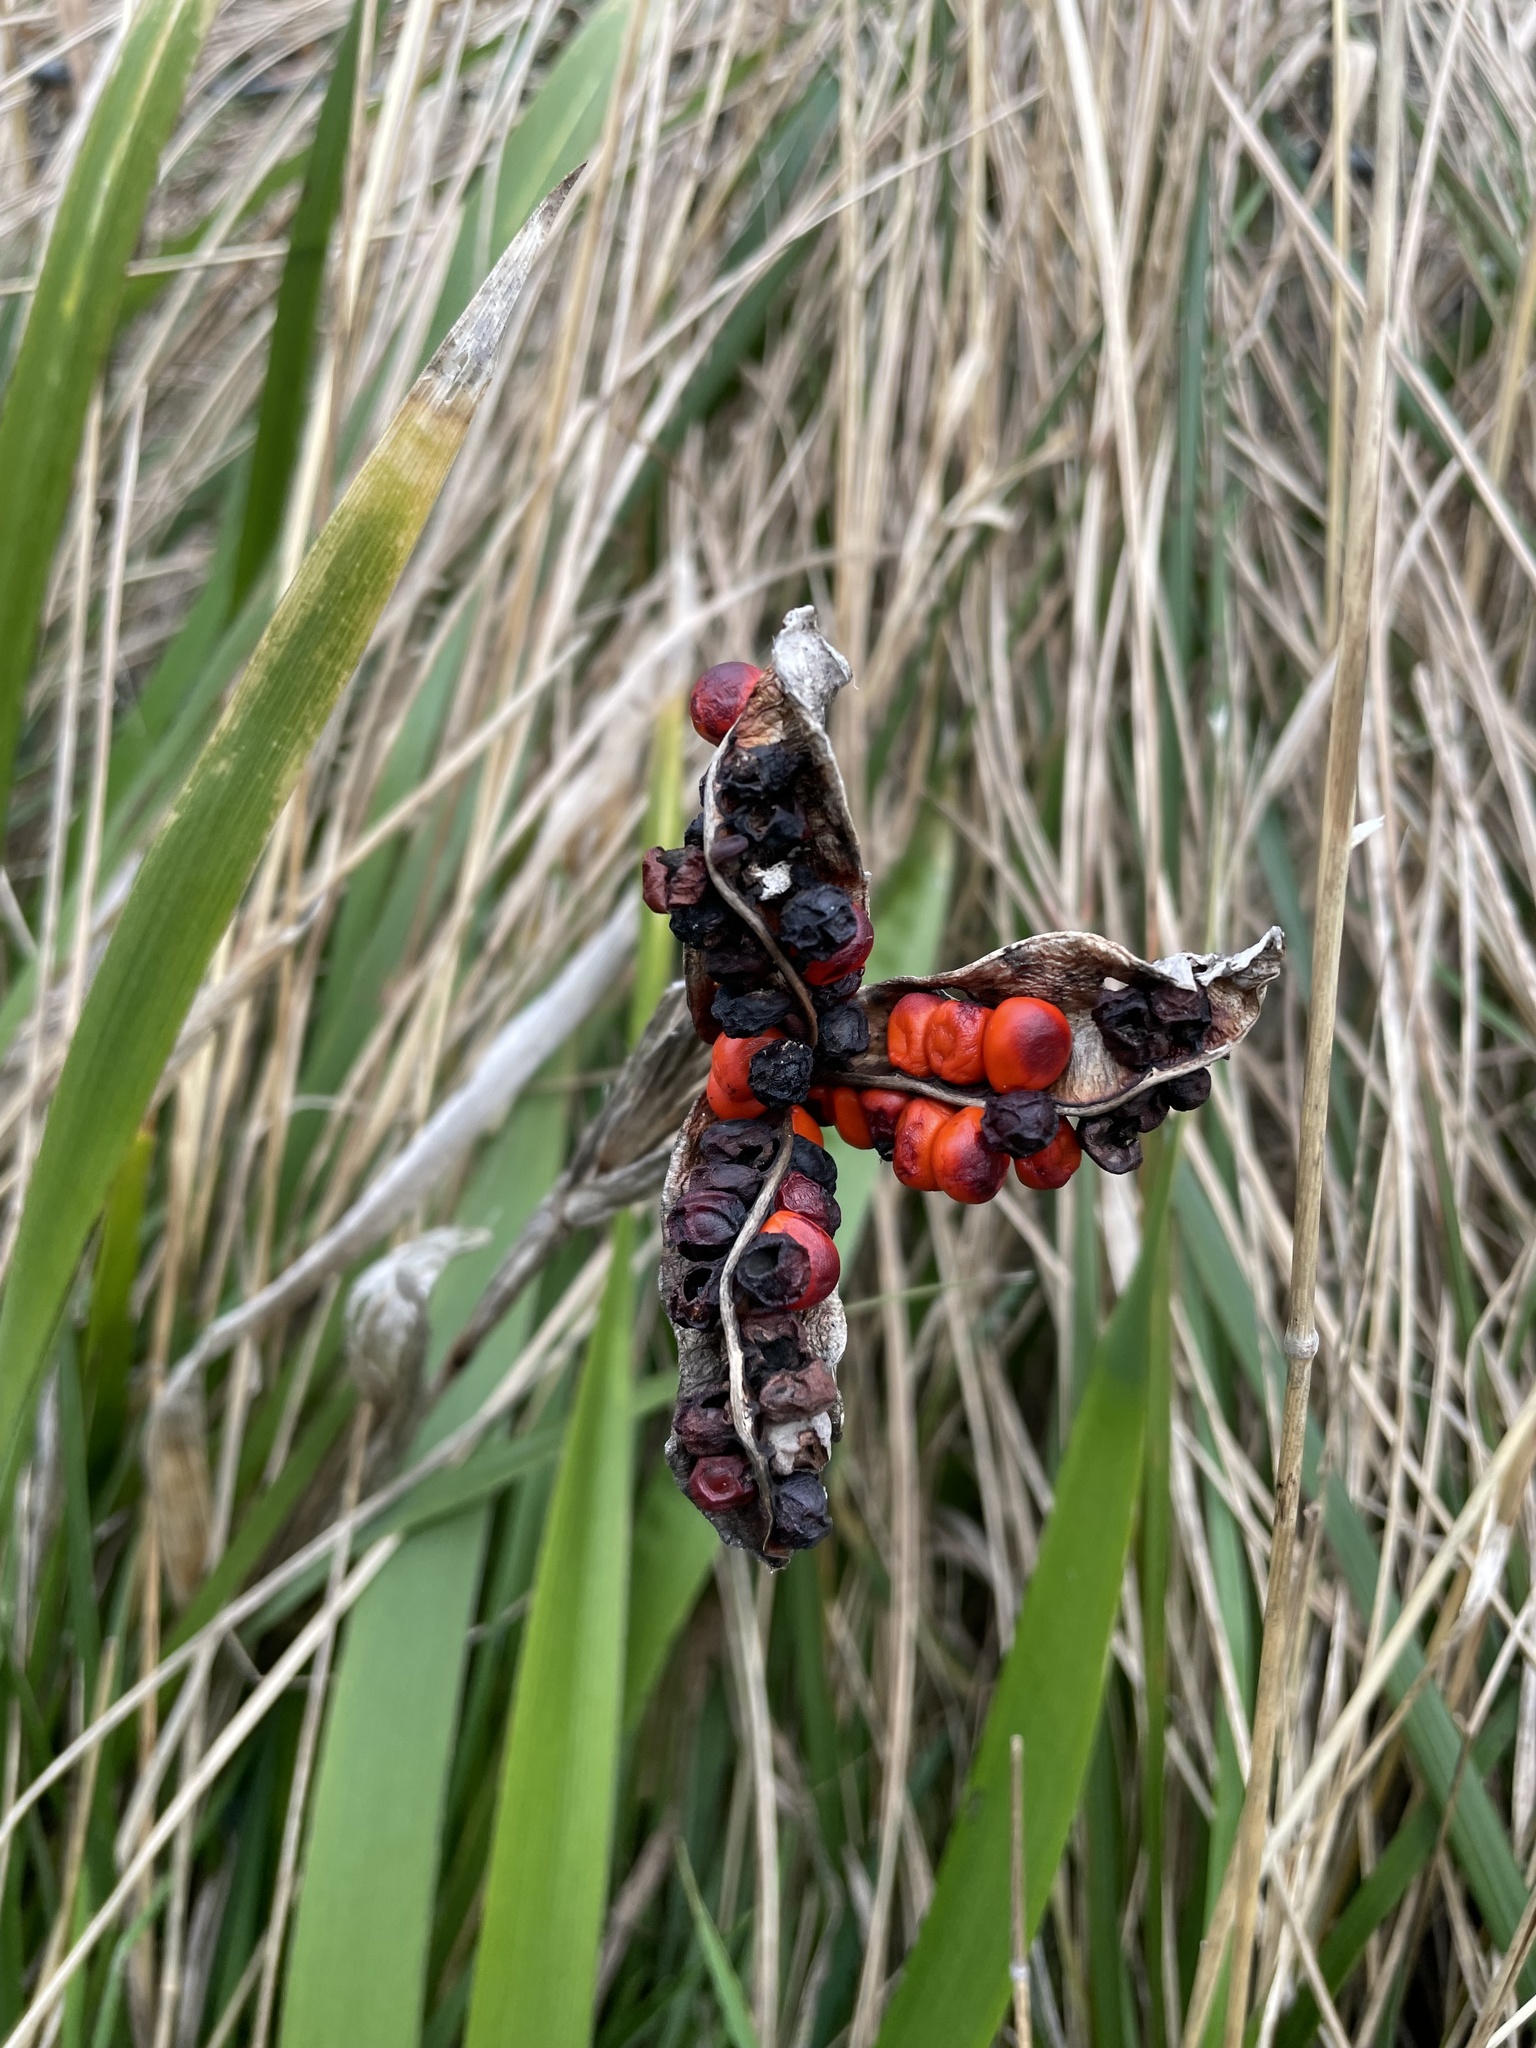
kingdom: Plantae
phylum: Tracheophyta
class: Liliopsida
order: Asparagales
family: Iridaceae
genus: Iris
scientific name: Iris foetidissima
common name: Stinking iris
